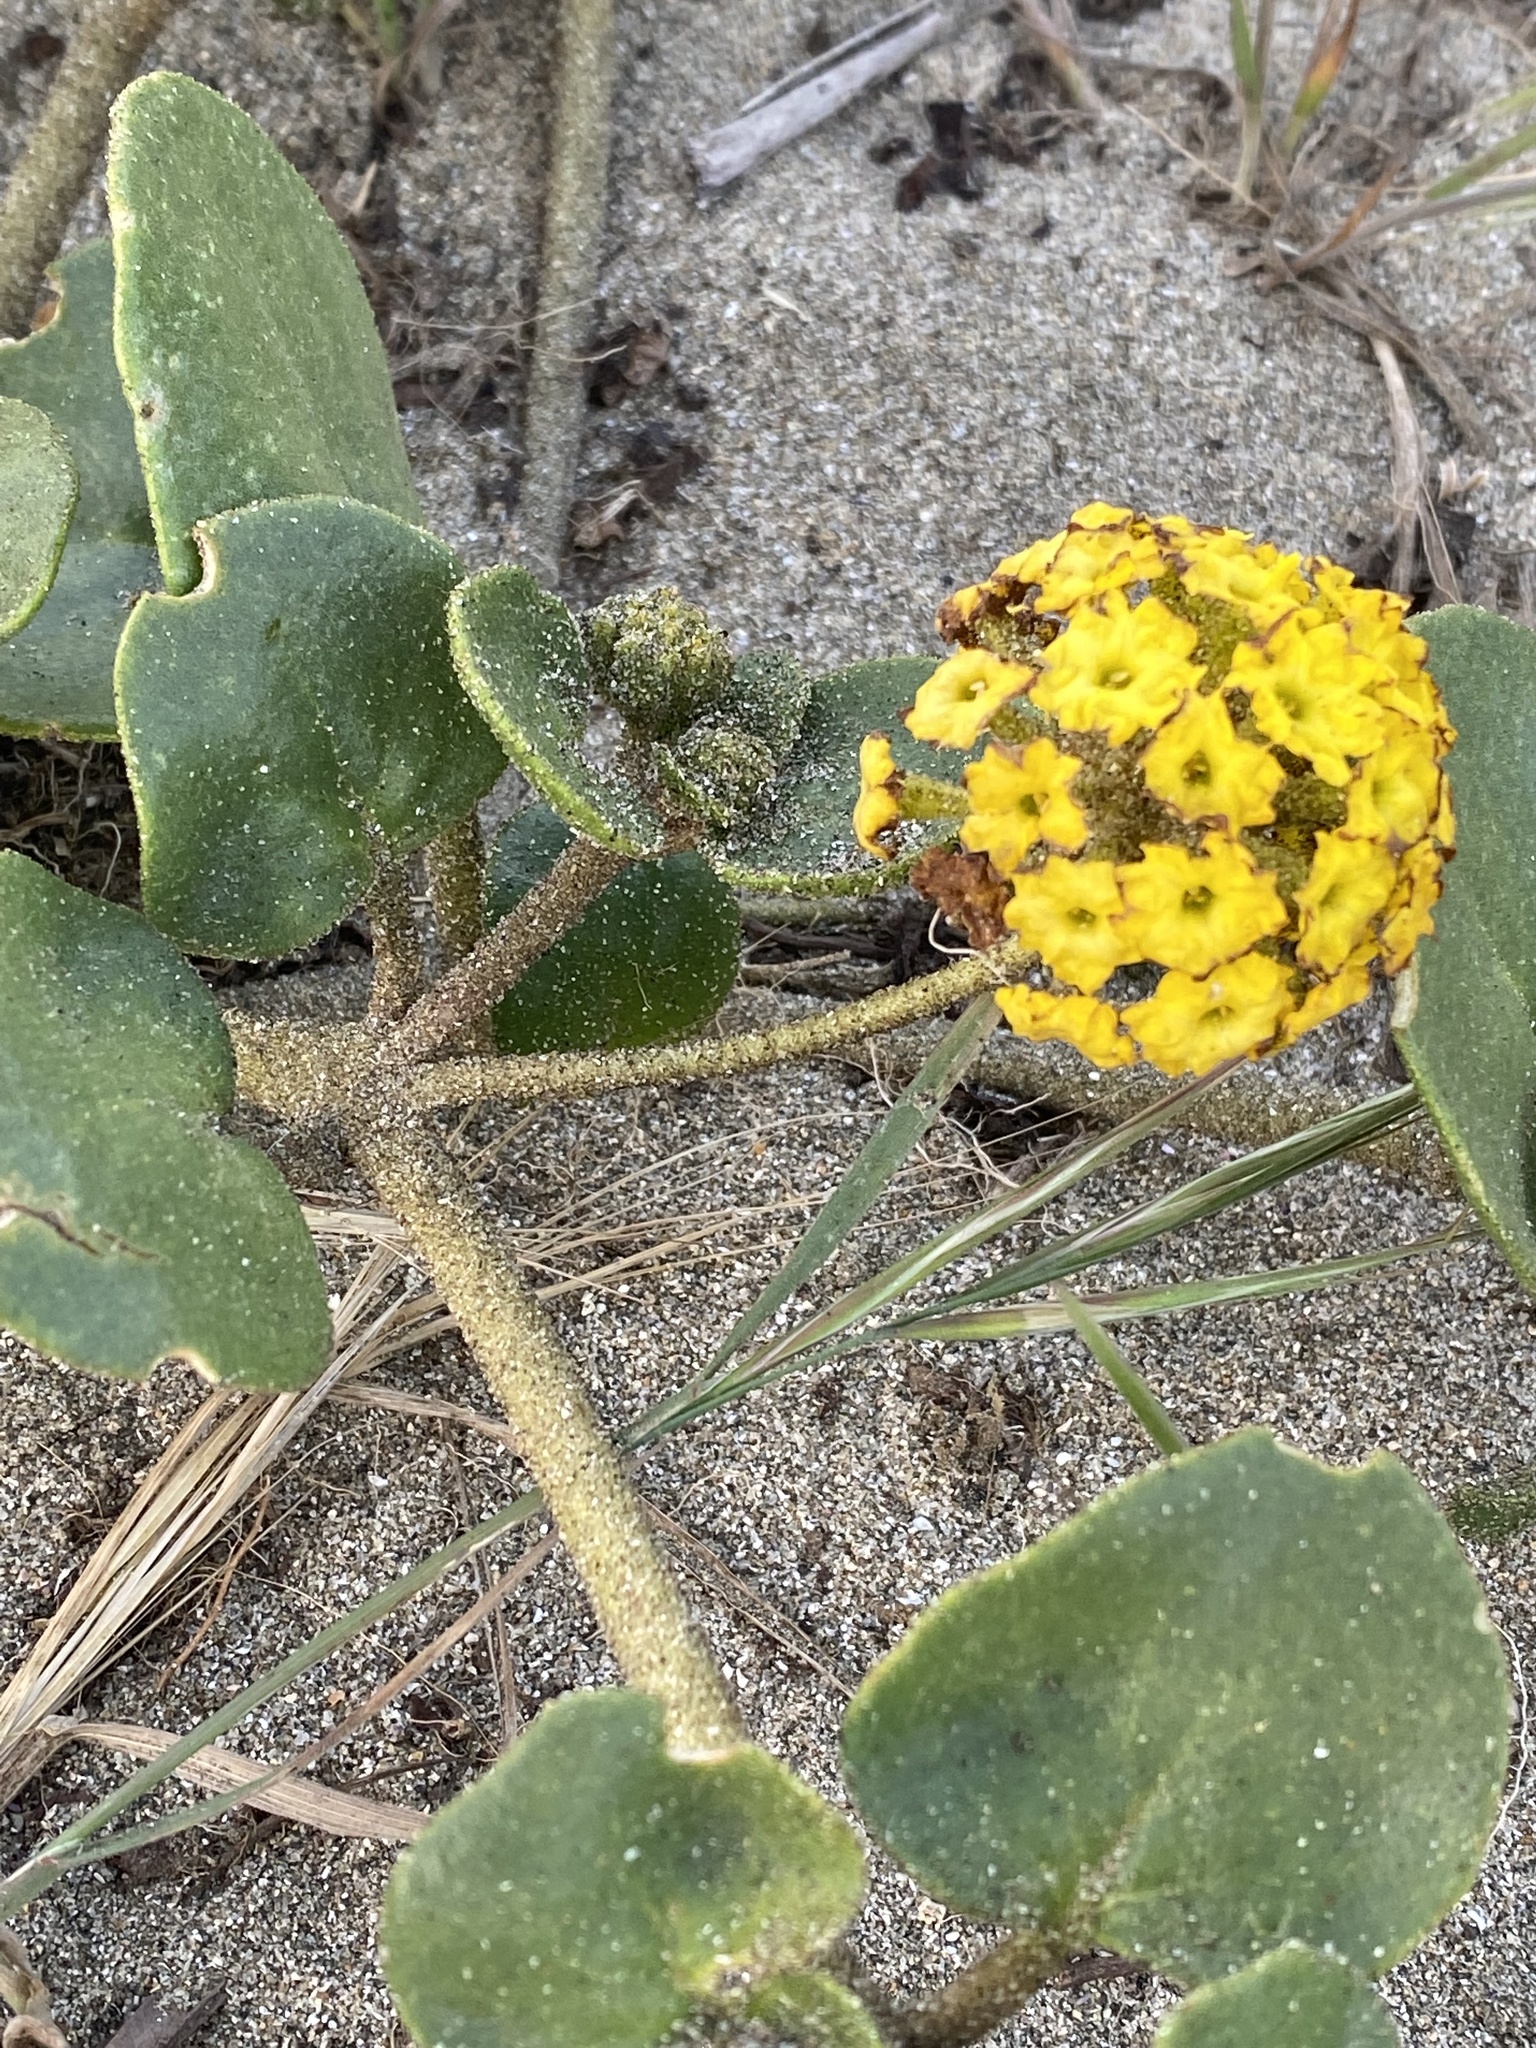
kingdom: Plantae
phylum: Tracheophyta
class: Magnoliopsida
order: Caryophyllales
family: Nyctaginaceae
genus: Abronia
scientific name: Abronia latifolia
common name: Yellow sand-verbena
